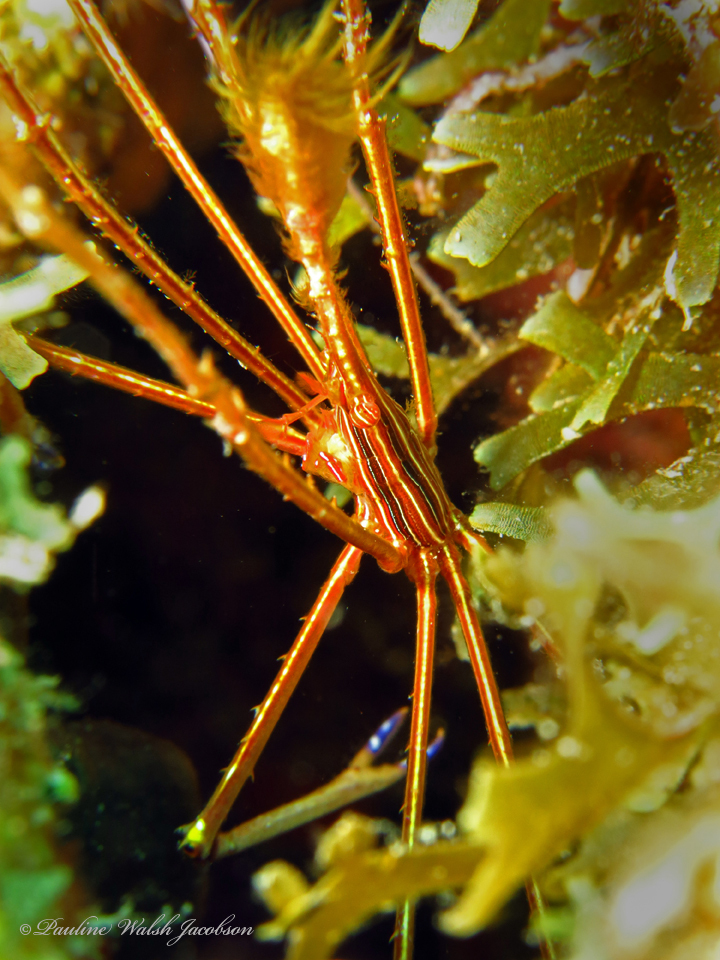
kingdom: Animalia
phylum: Arthropoda
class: Malacostraca
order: Decapoda
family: Inachoididae
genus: Stenorhynchus
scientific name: Stenorhynchus seticornis
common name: Arrow crab
